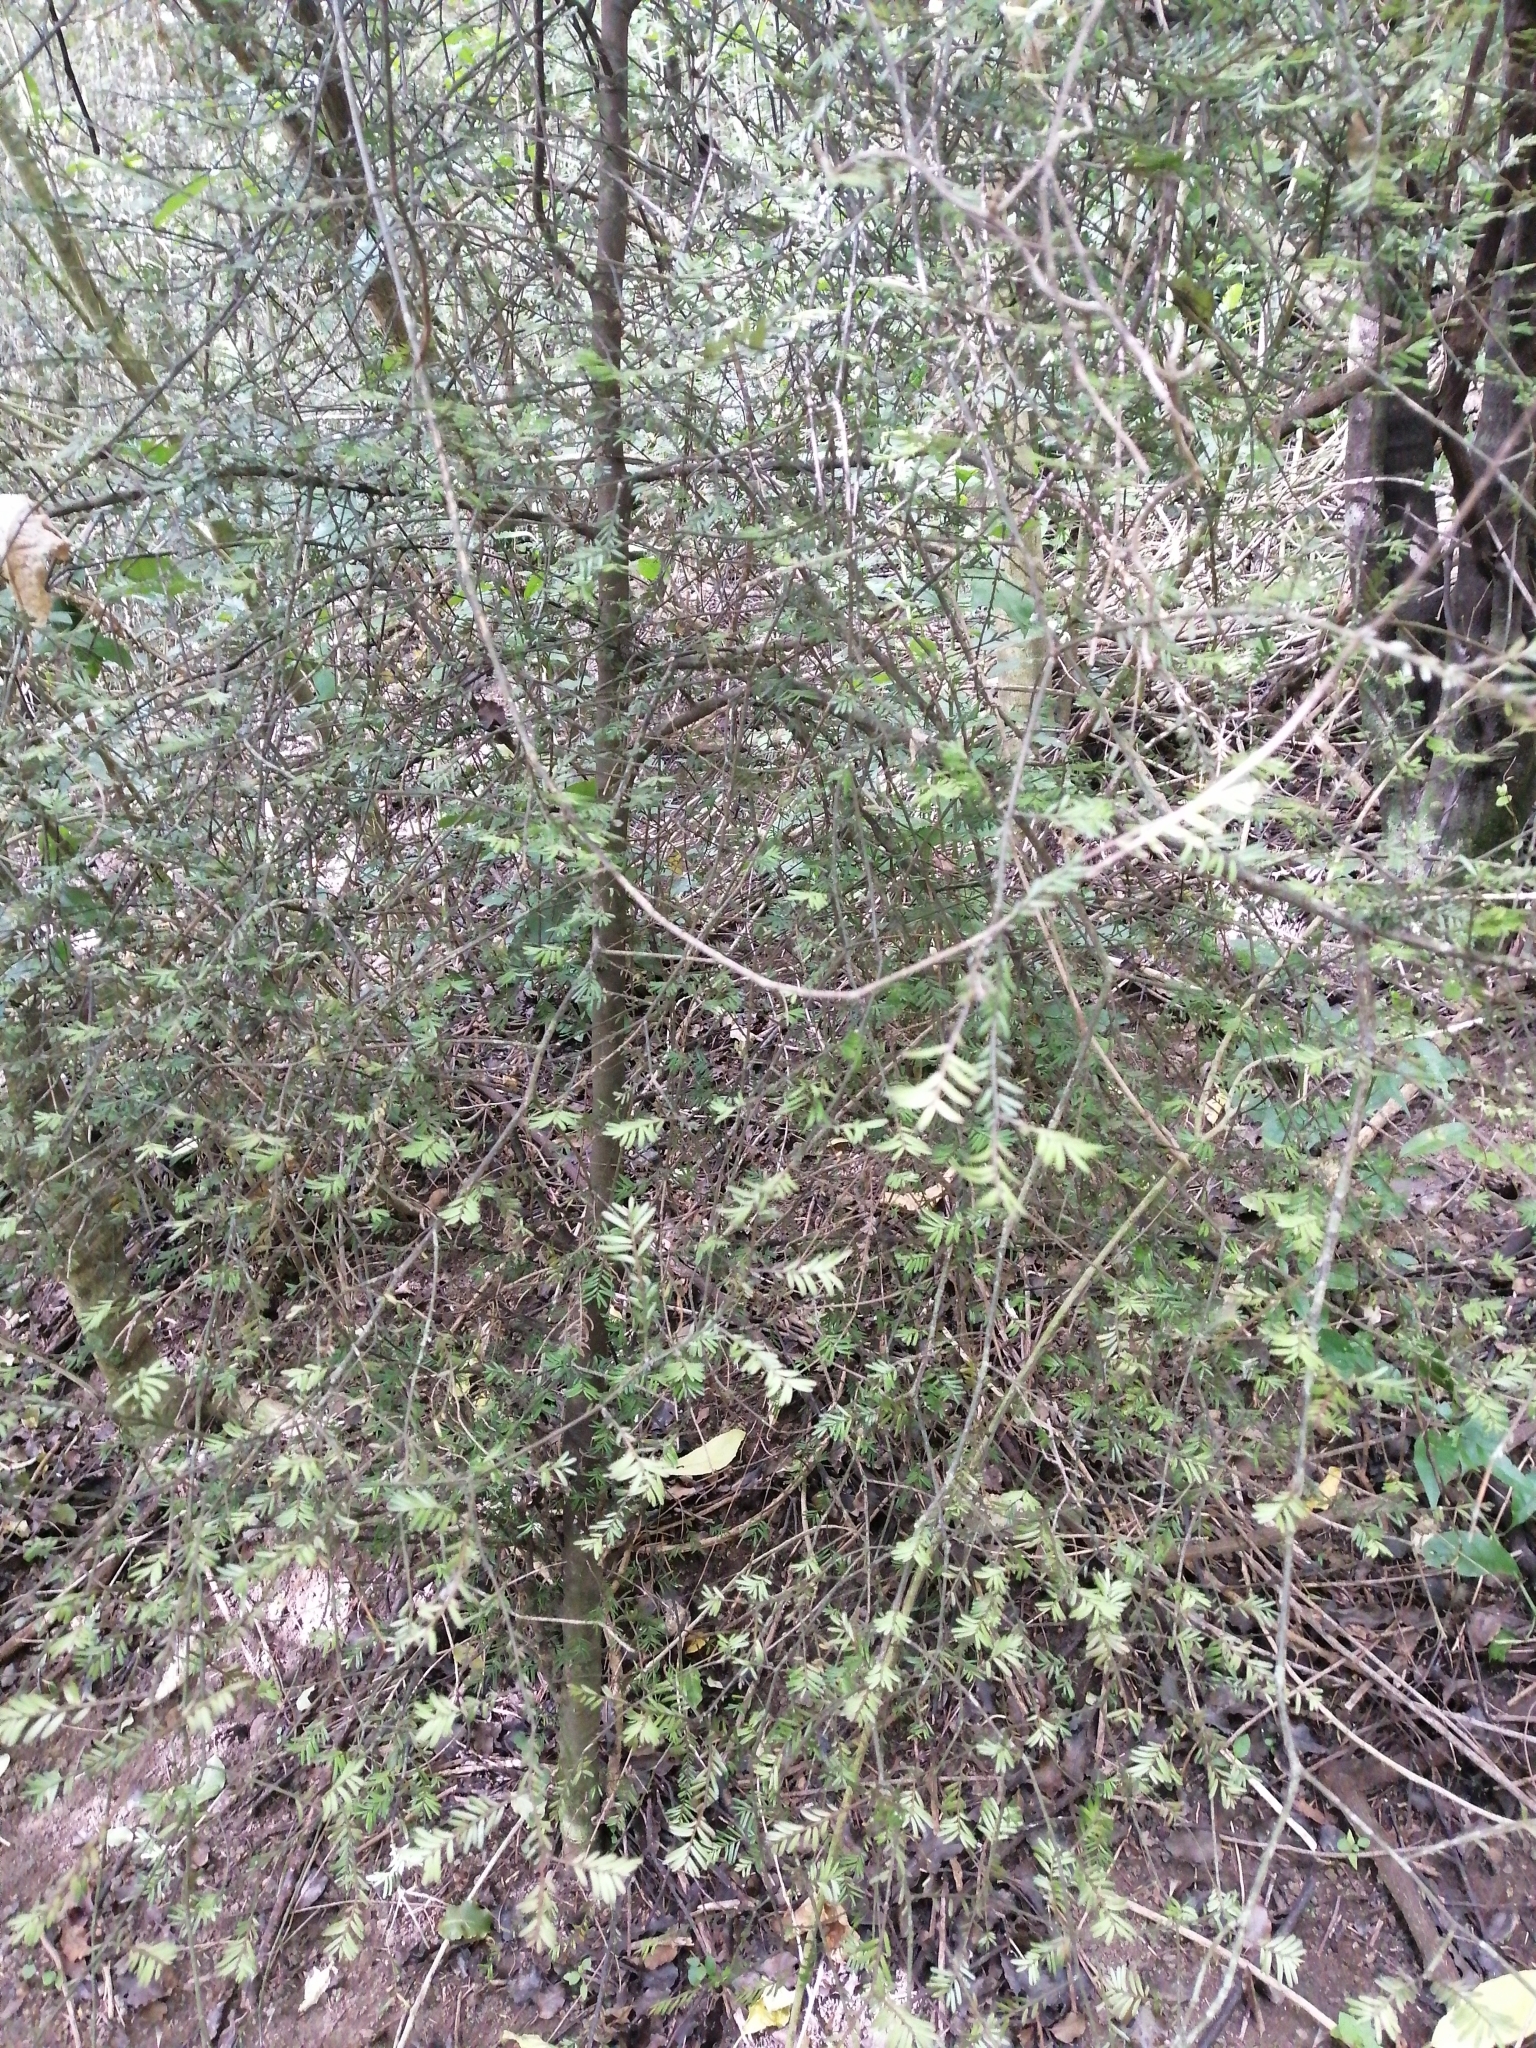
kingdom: Plantae
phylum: Tracheophyta
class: Pinopsida
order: Pinales
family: Podocarpaceae
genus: Prumnopitys
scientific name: Prumnopitys taxifolia
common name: Matai
